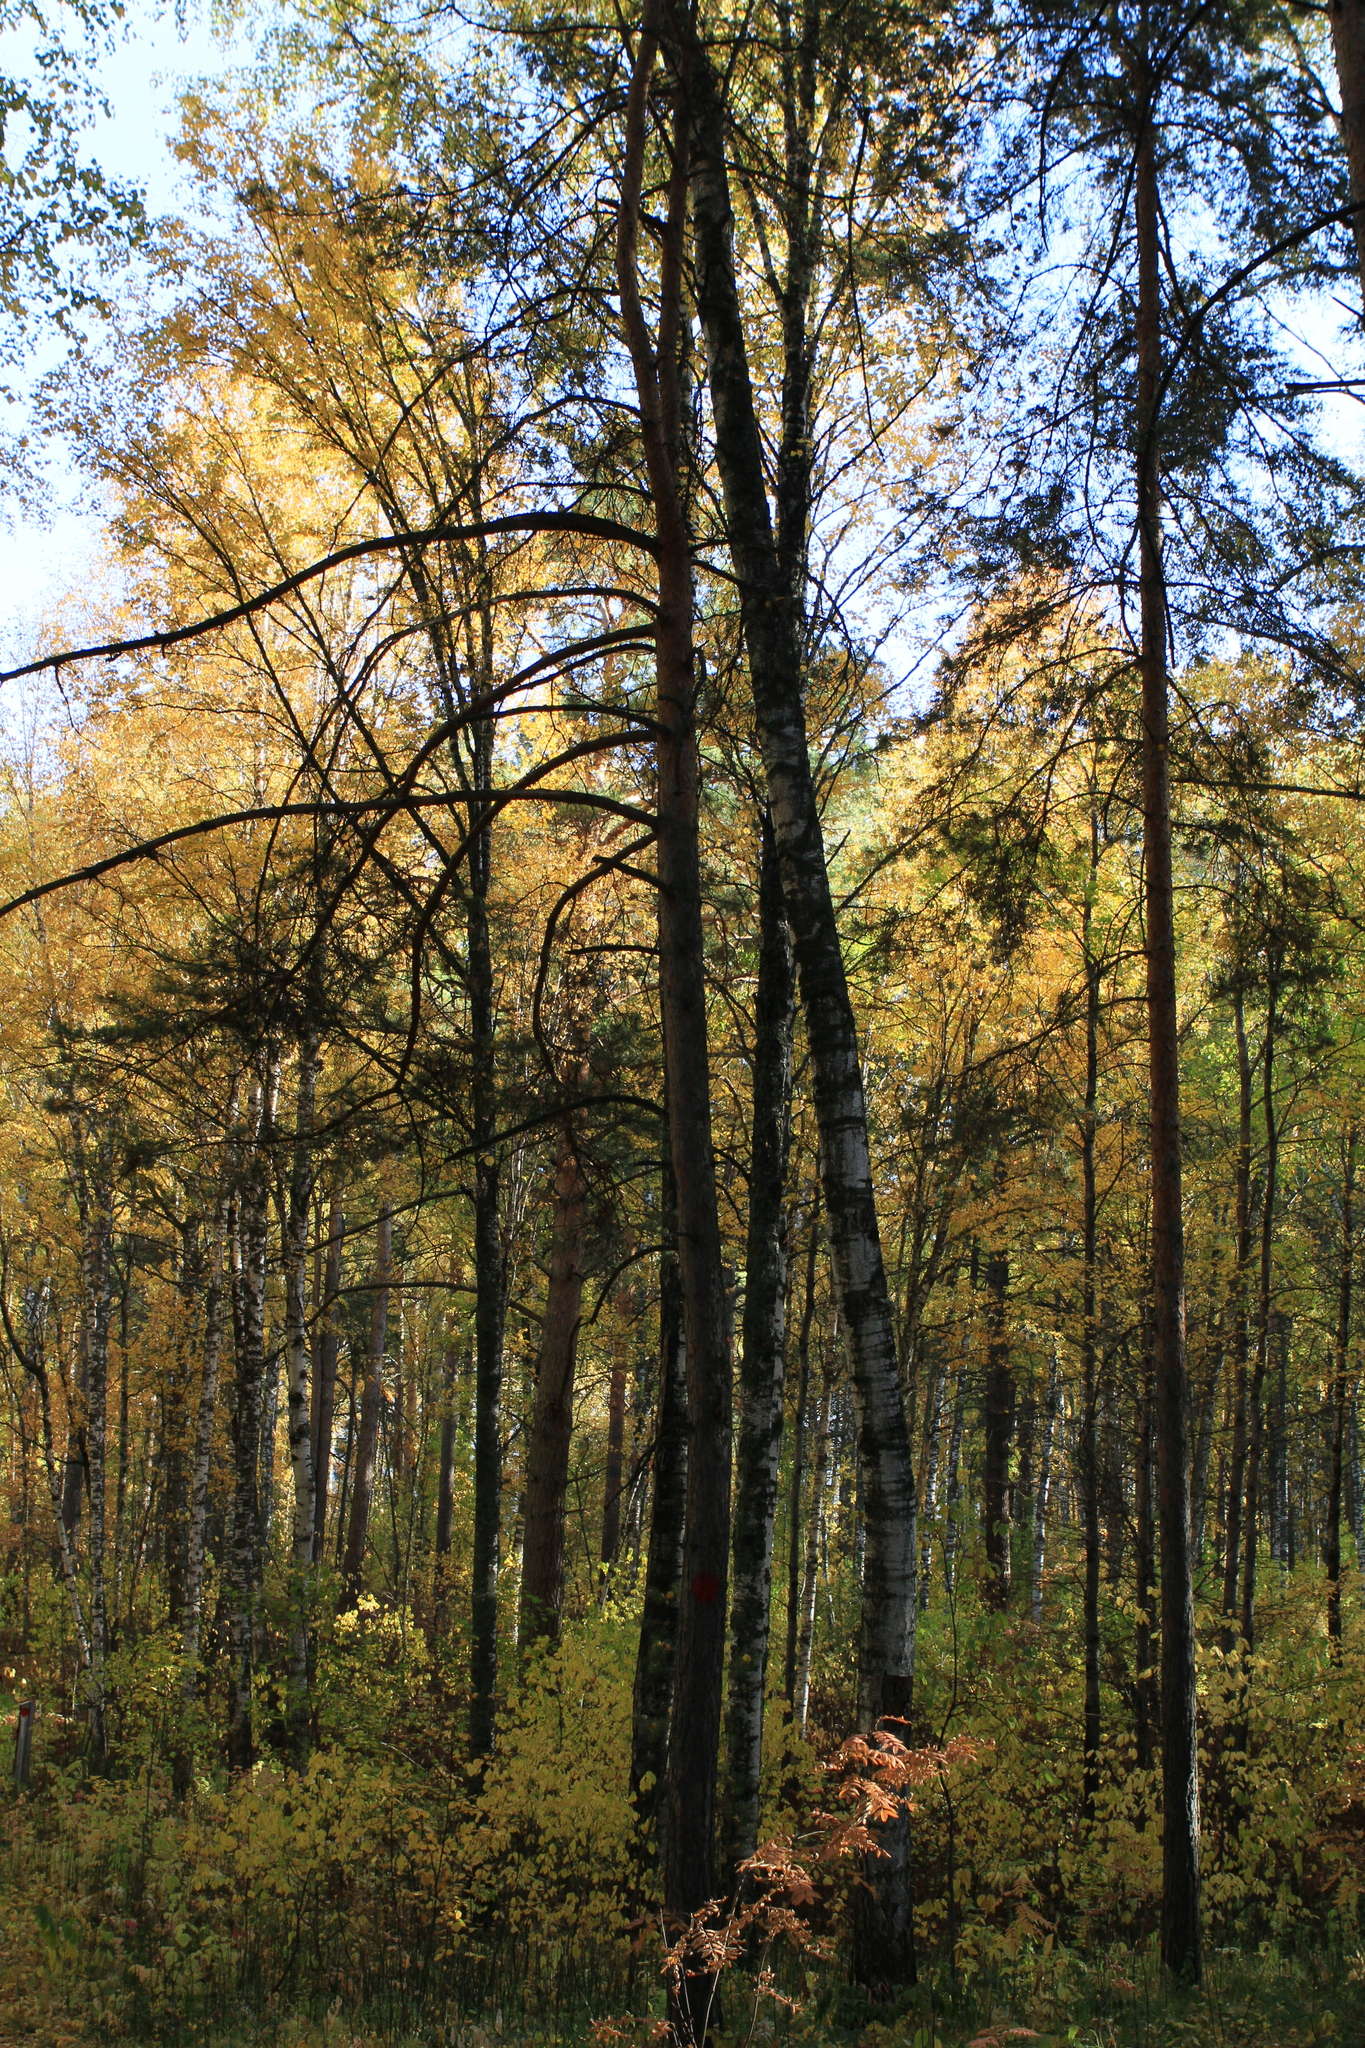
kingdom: Plantae
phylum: Tracheophyta
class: Magnoliopsida
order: Fagales
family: Betulaceae
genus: Betula
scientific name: Betula pendula
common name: Silver birch
